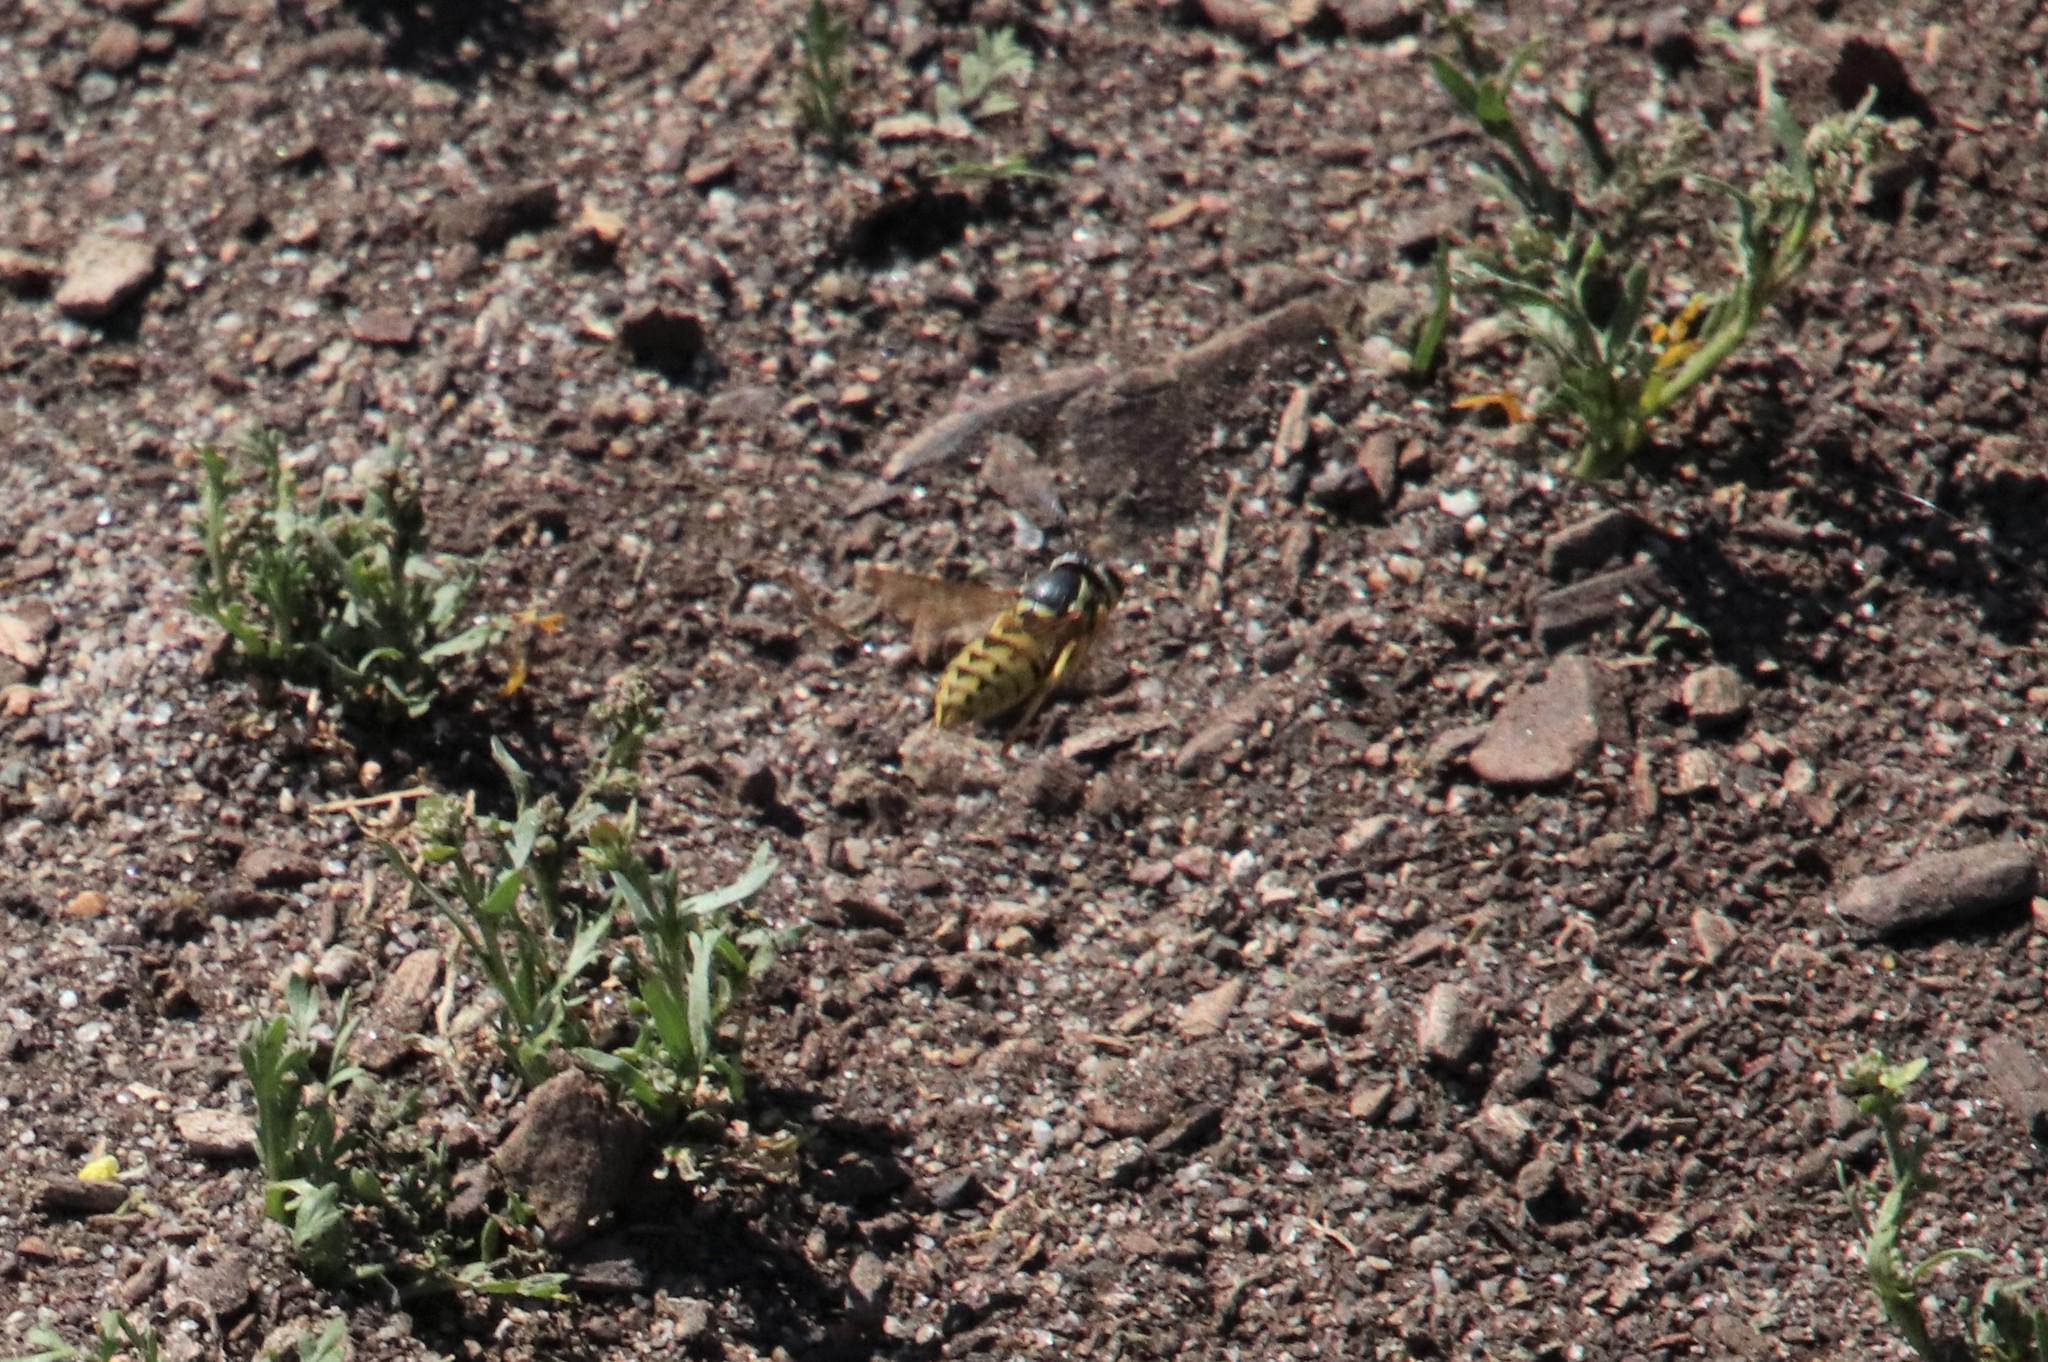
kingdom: Animalia
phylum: Arthropoda
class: Insecta
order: Hymenoptera
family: Vespidae
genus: Vespula
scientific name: Vespula pensylvanica
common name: Western yellowjacket
